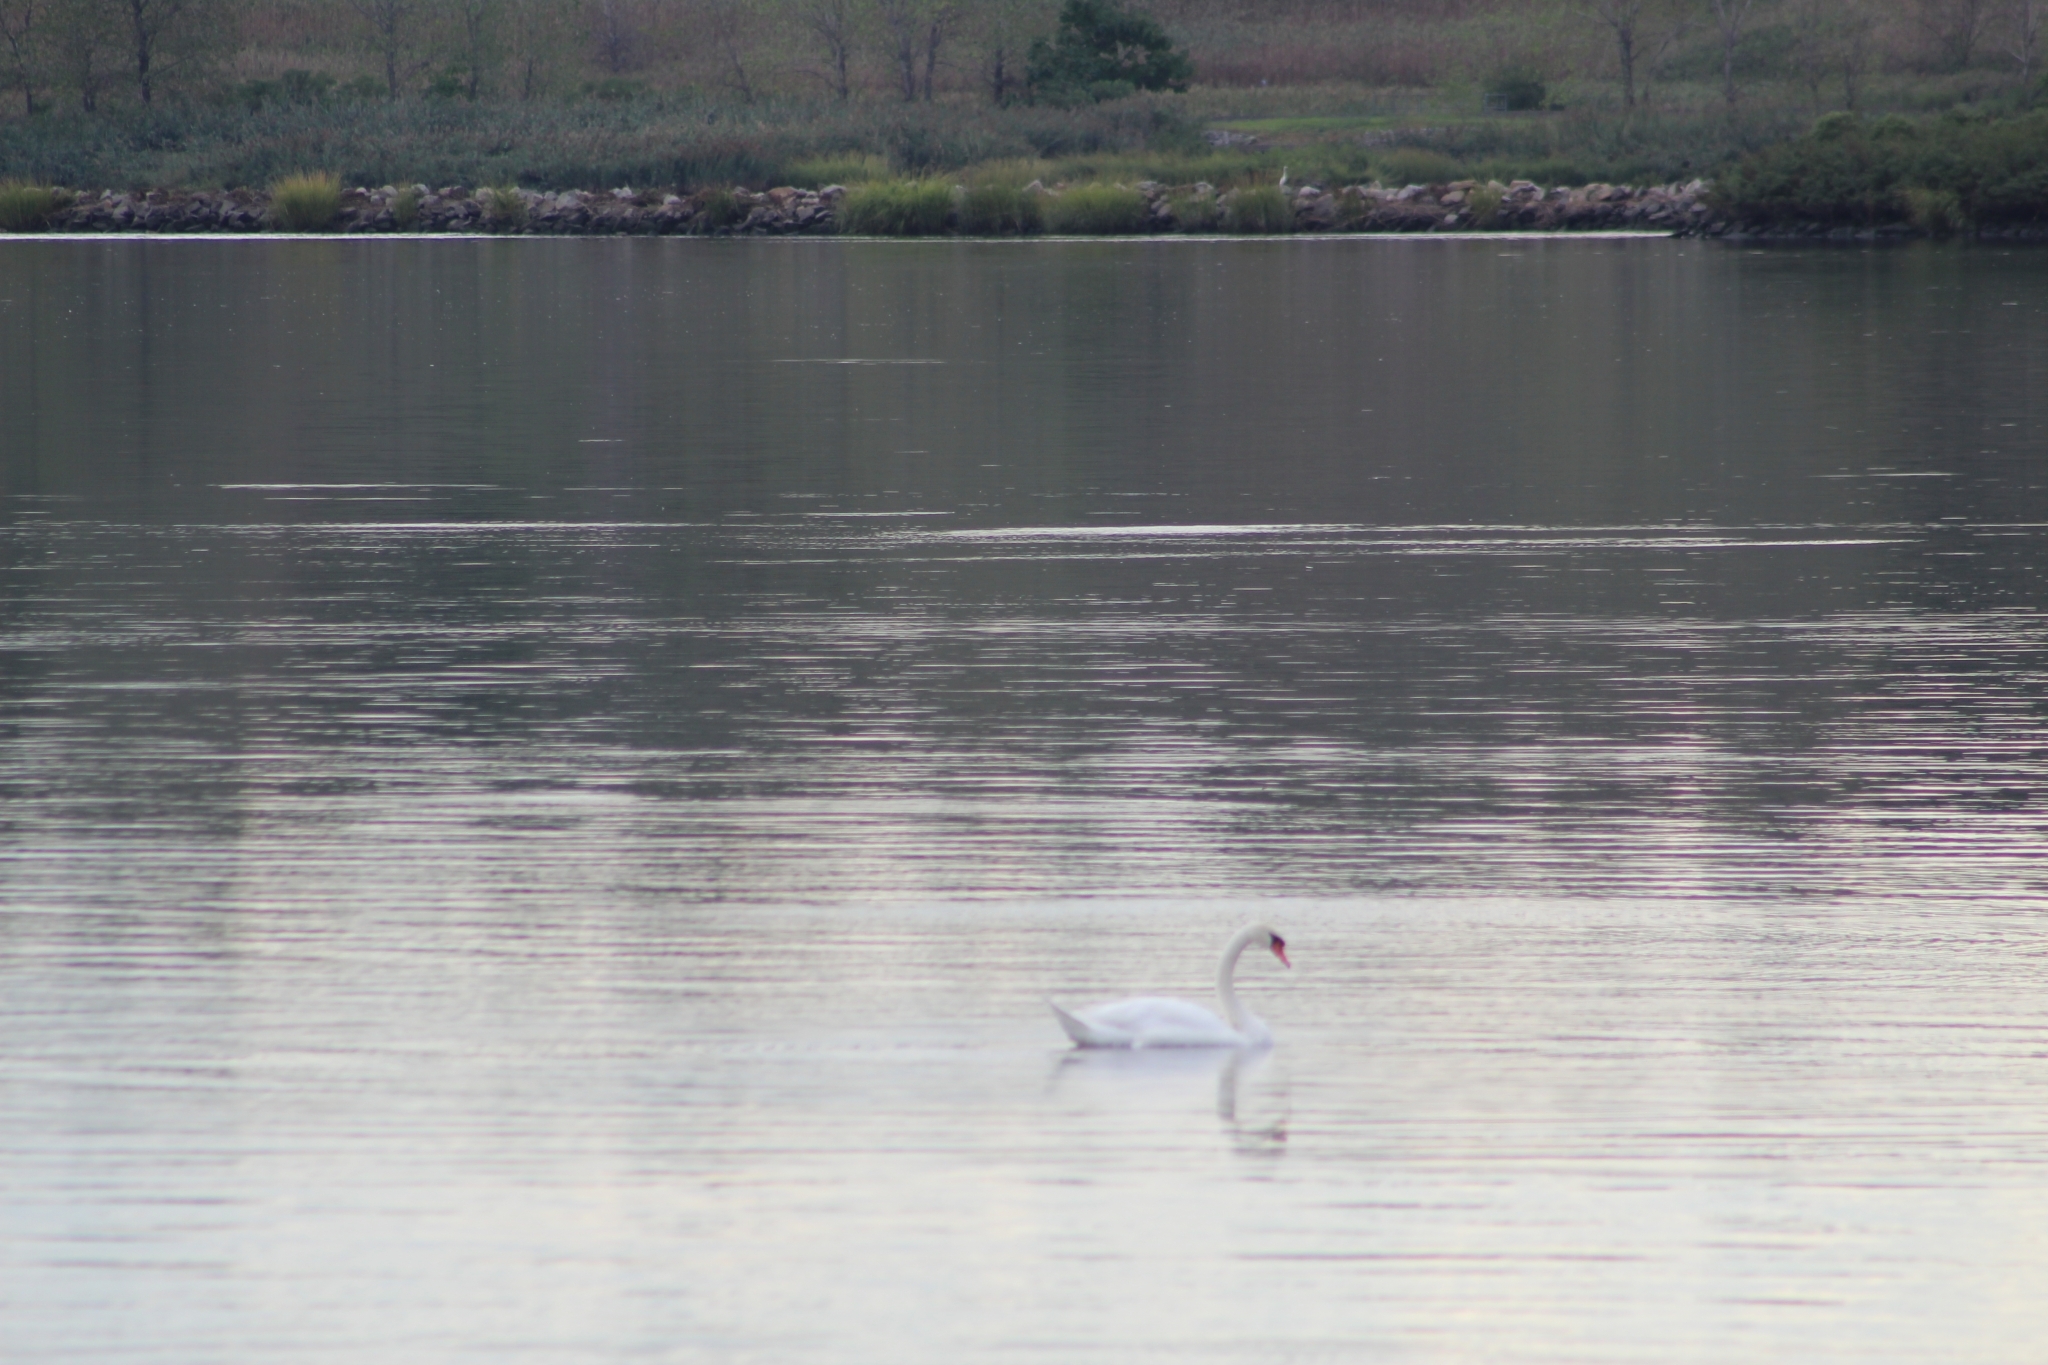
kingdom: Animalia
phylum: Chordata
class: Aves
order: Anseriformes
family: Anatidae
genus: Cygnus
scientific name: Cygnus olor
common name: Mute swan
